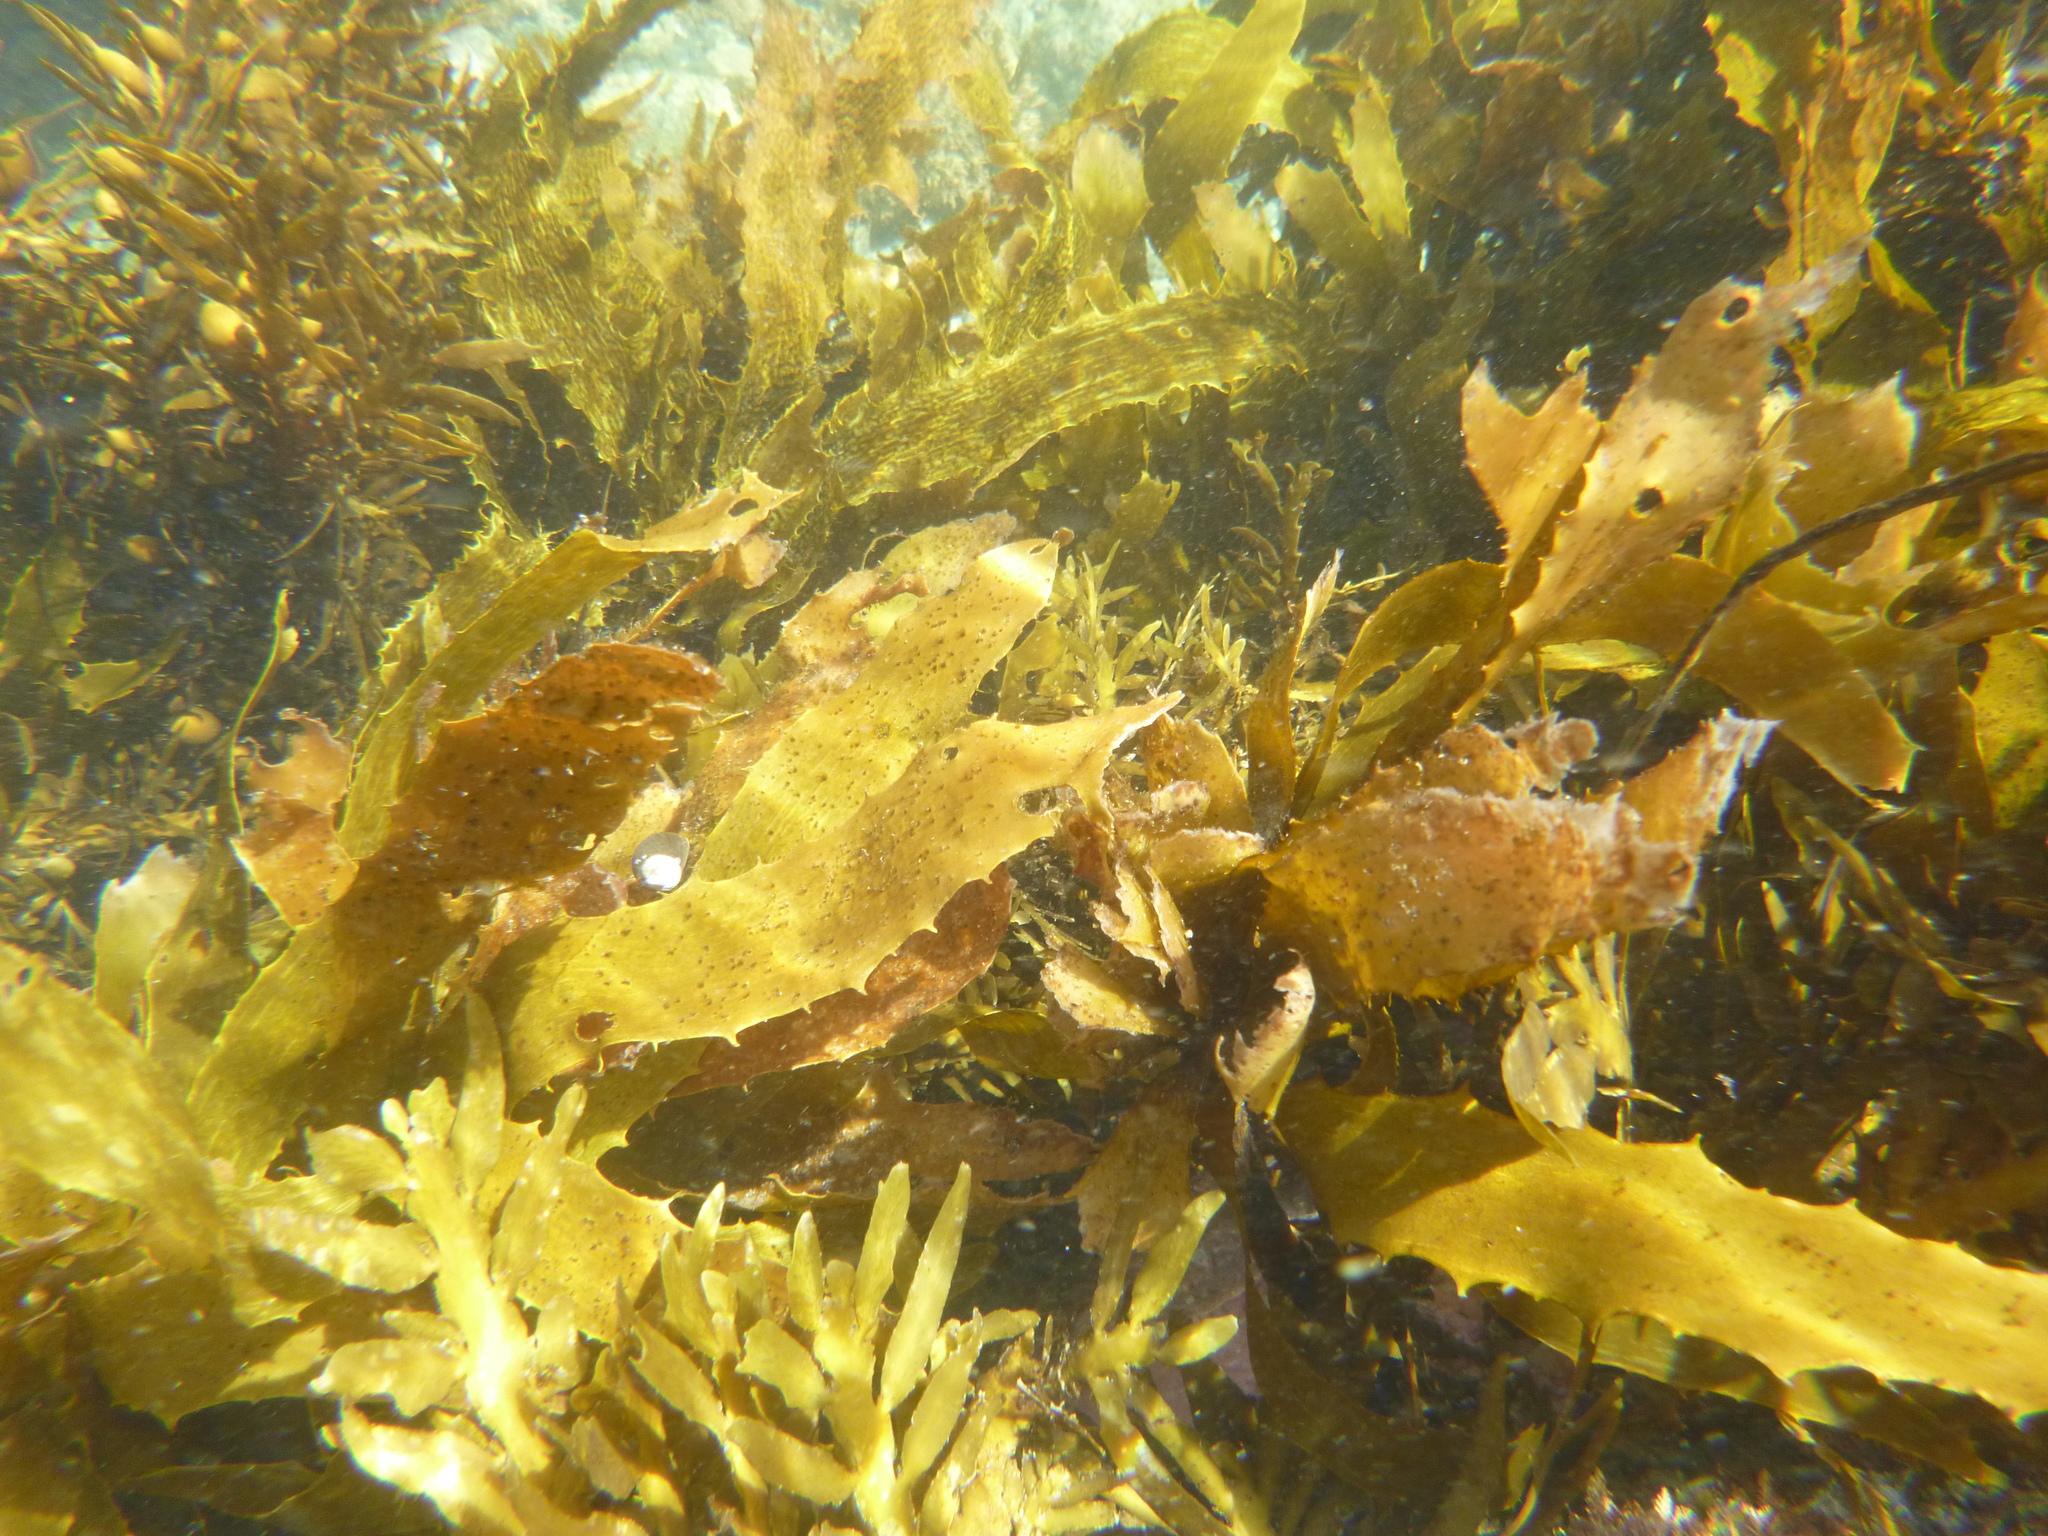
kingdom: Chromista
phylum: Ochrophyta
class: Phaeophyceae
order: Laminariales
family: Lessoniaceae
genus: Ecklonia
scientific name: Ecklonia radiata
